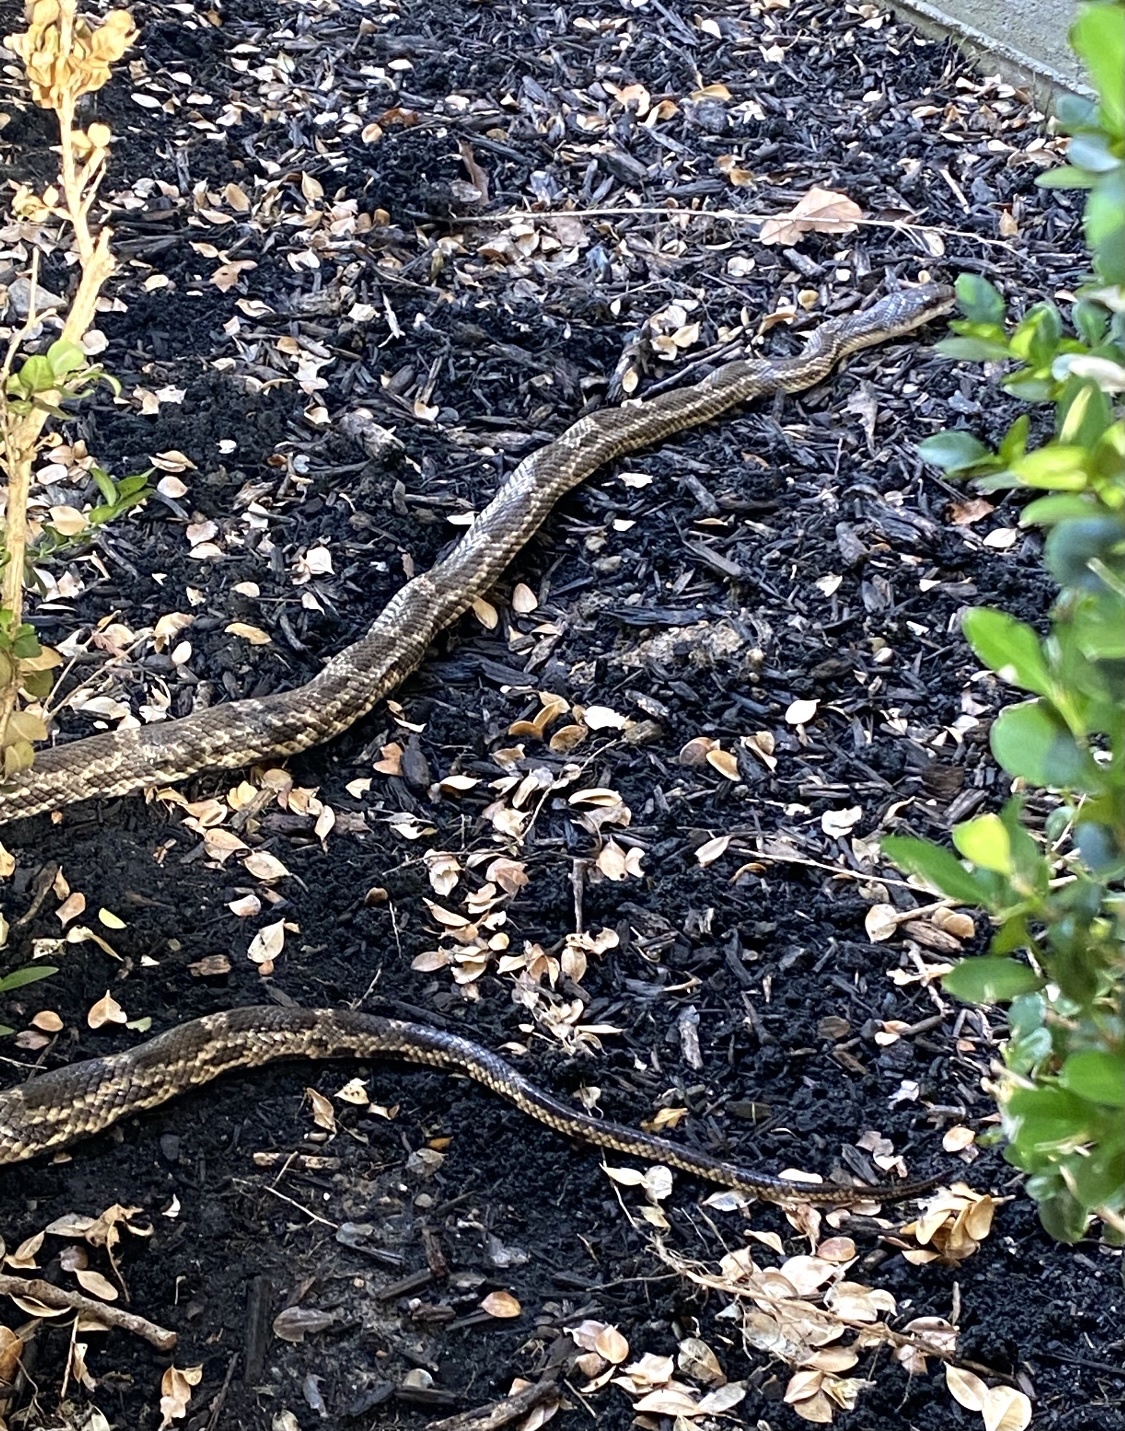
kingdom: Animalia
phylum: Chordata
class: Squamata
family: Colubridae
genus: Pantherophis
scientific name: Pantherophis obsoletus
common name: Black rat snake
